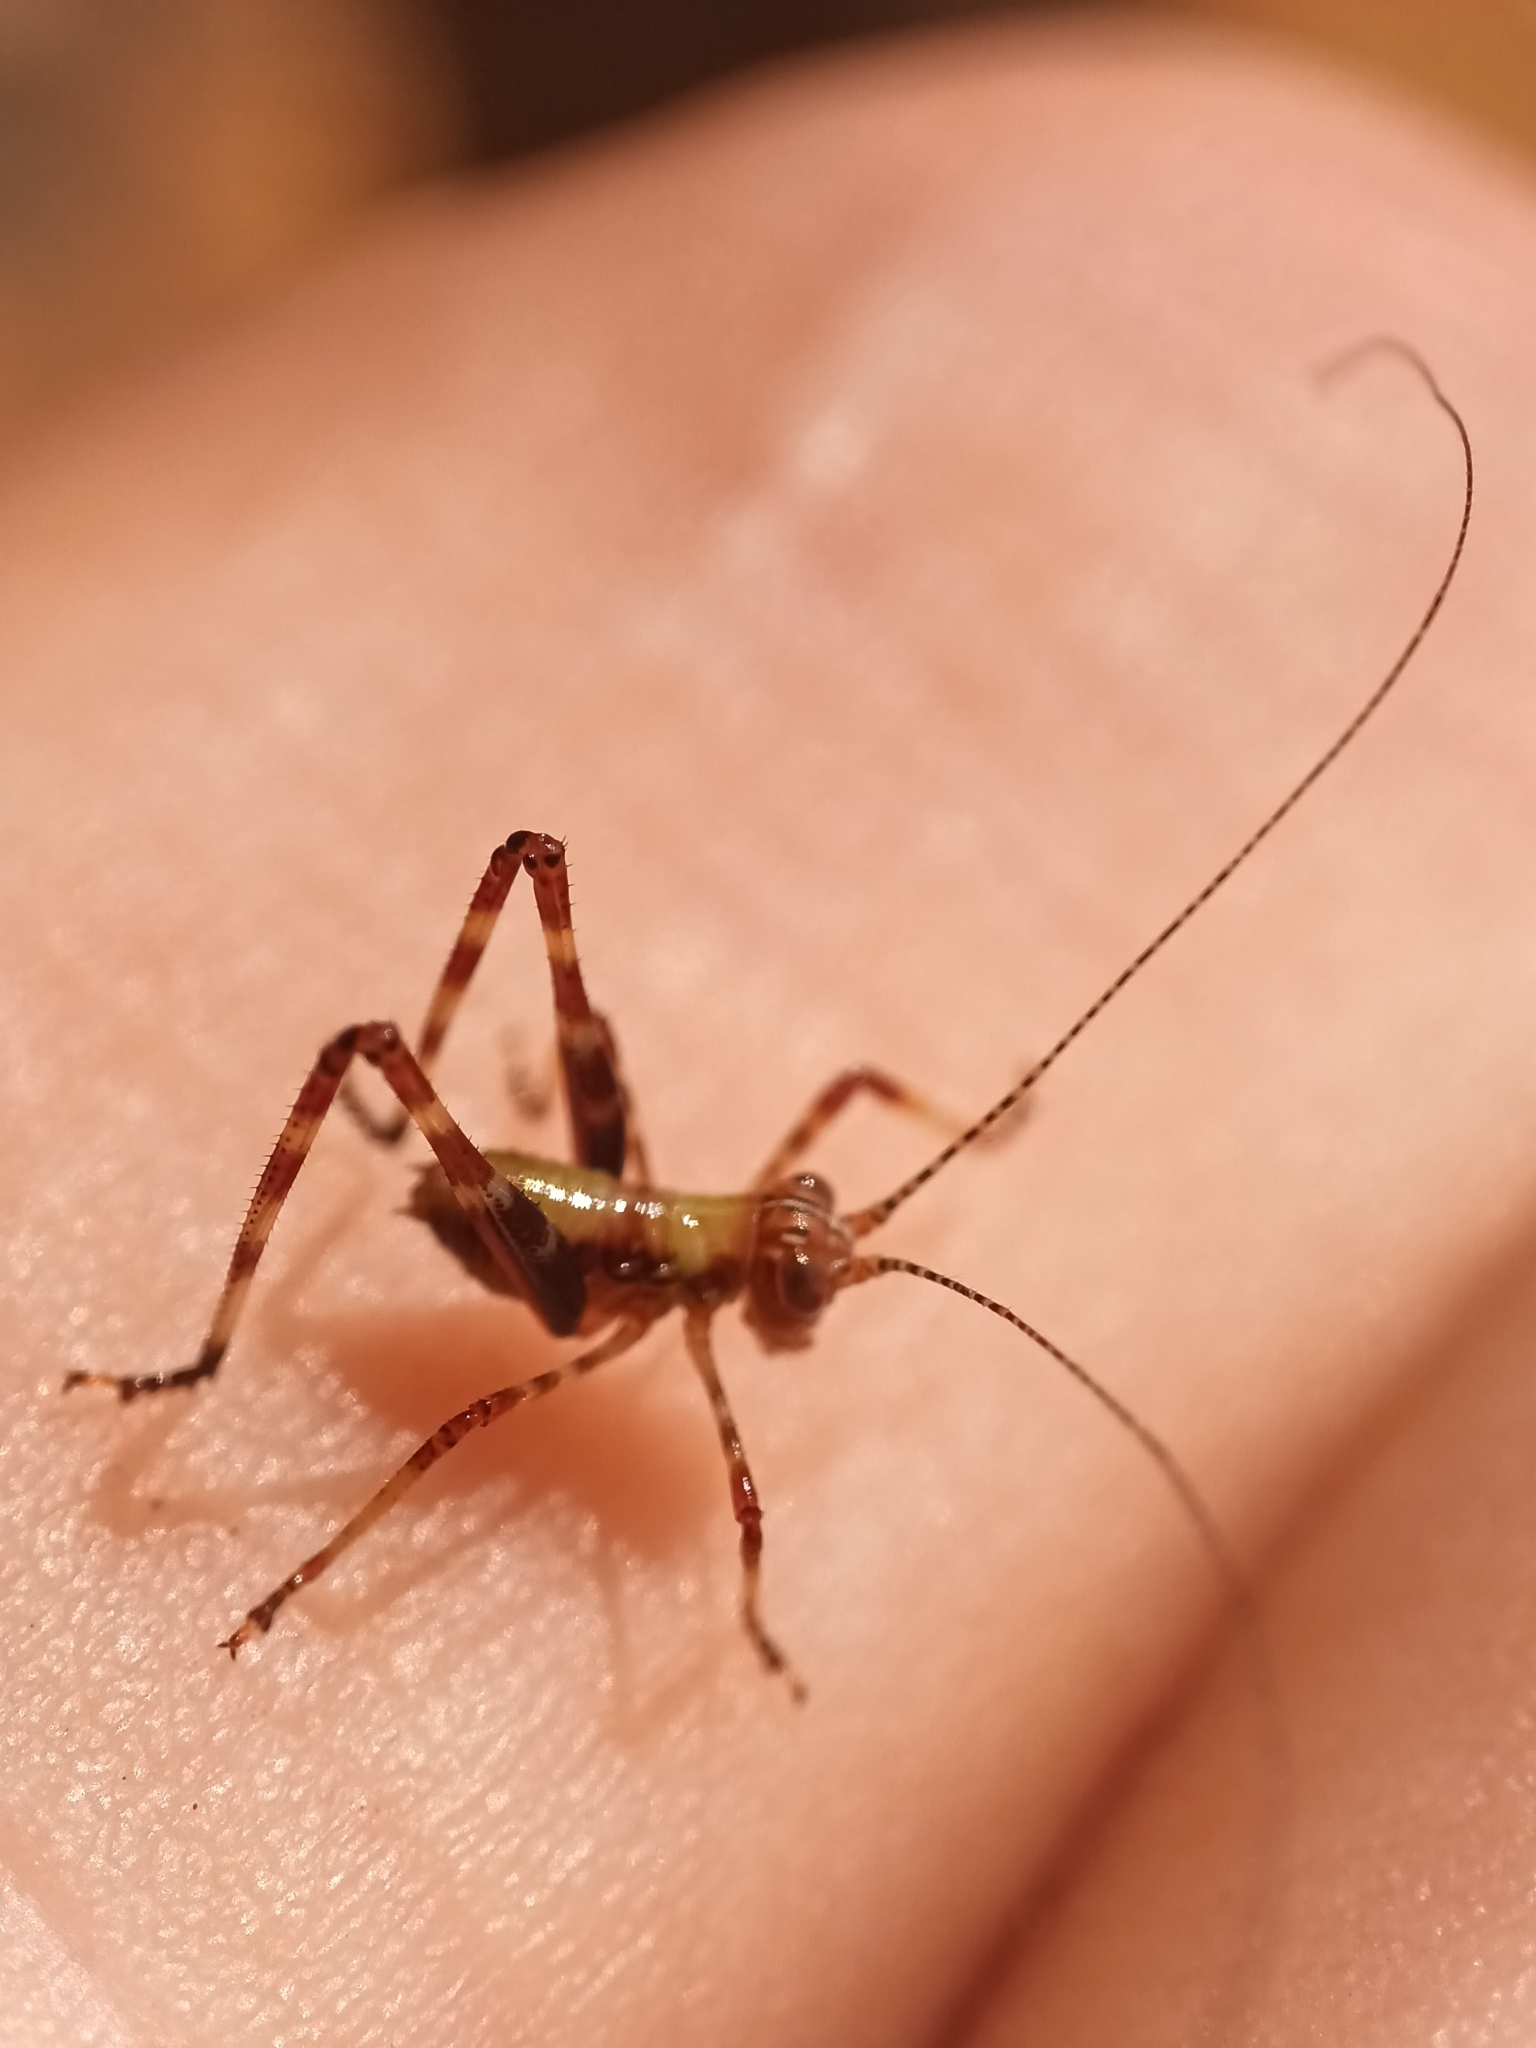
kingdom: Animalia
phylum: Arthropoda
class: Insecta
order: Orthoptera
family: Tettigoniidae
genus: Caedicia
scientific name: Caedicia simplex
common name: Common garden katydid
